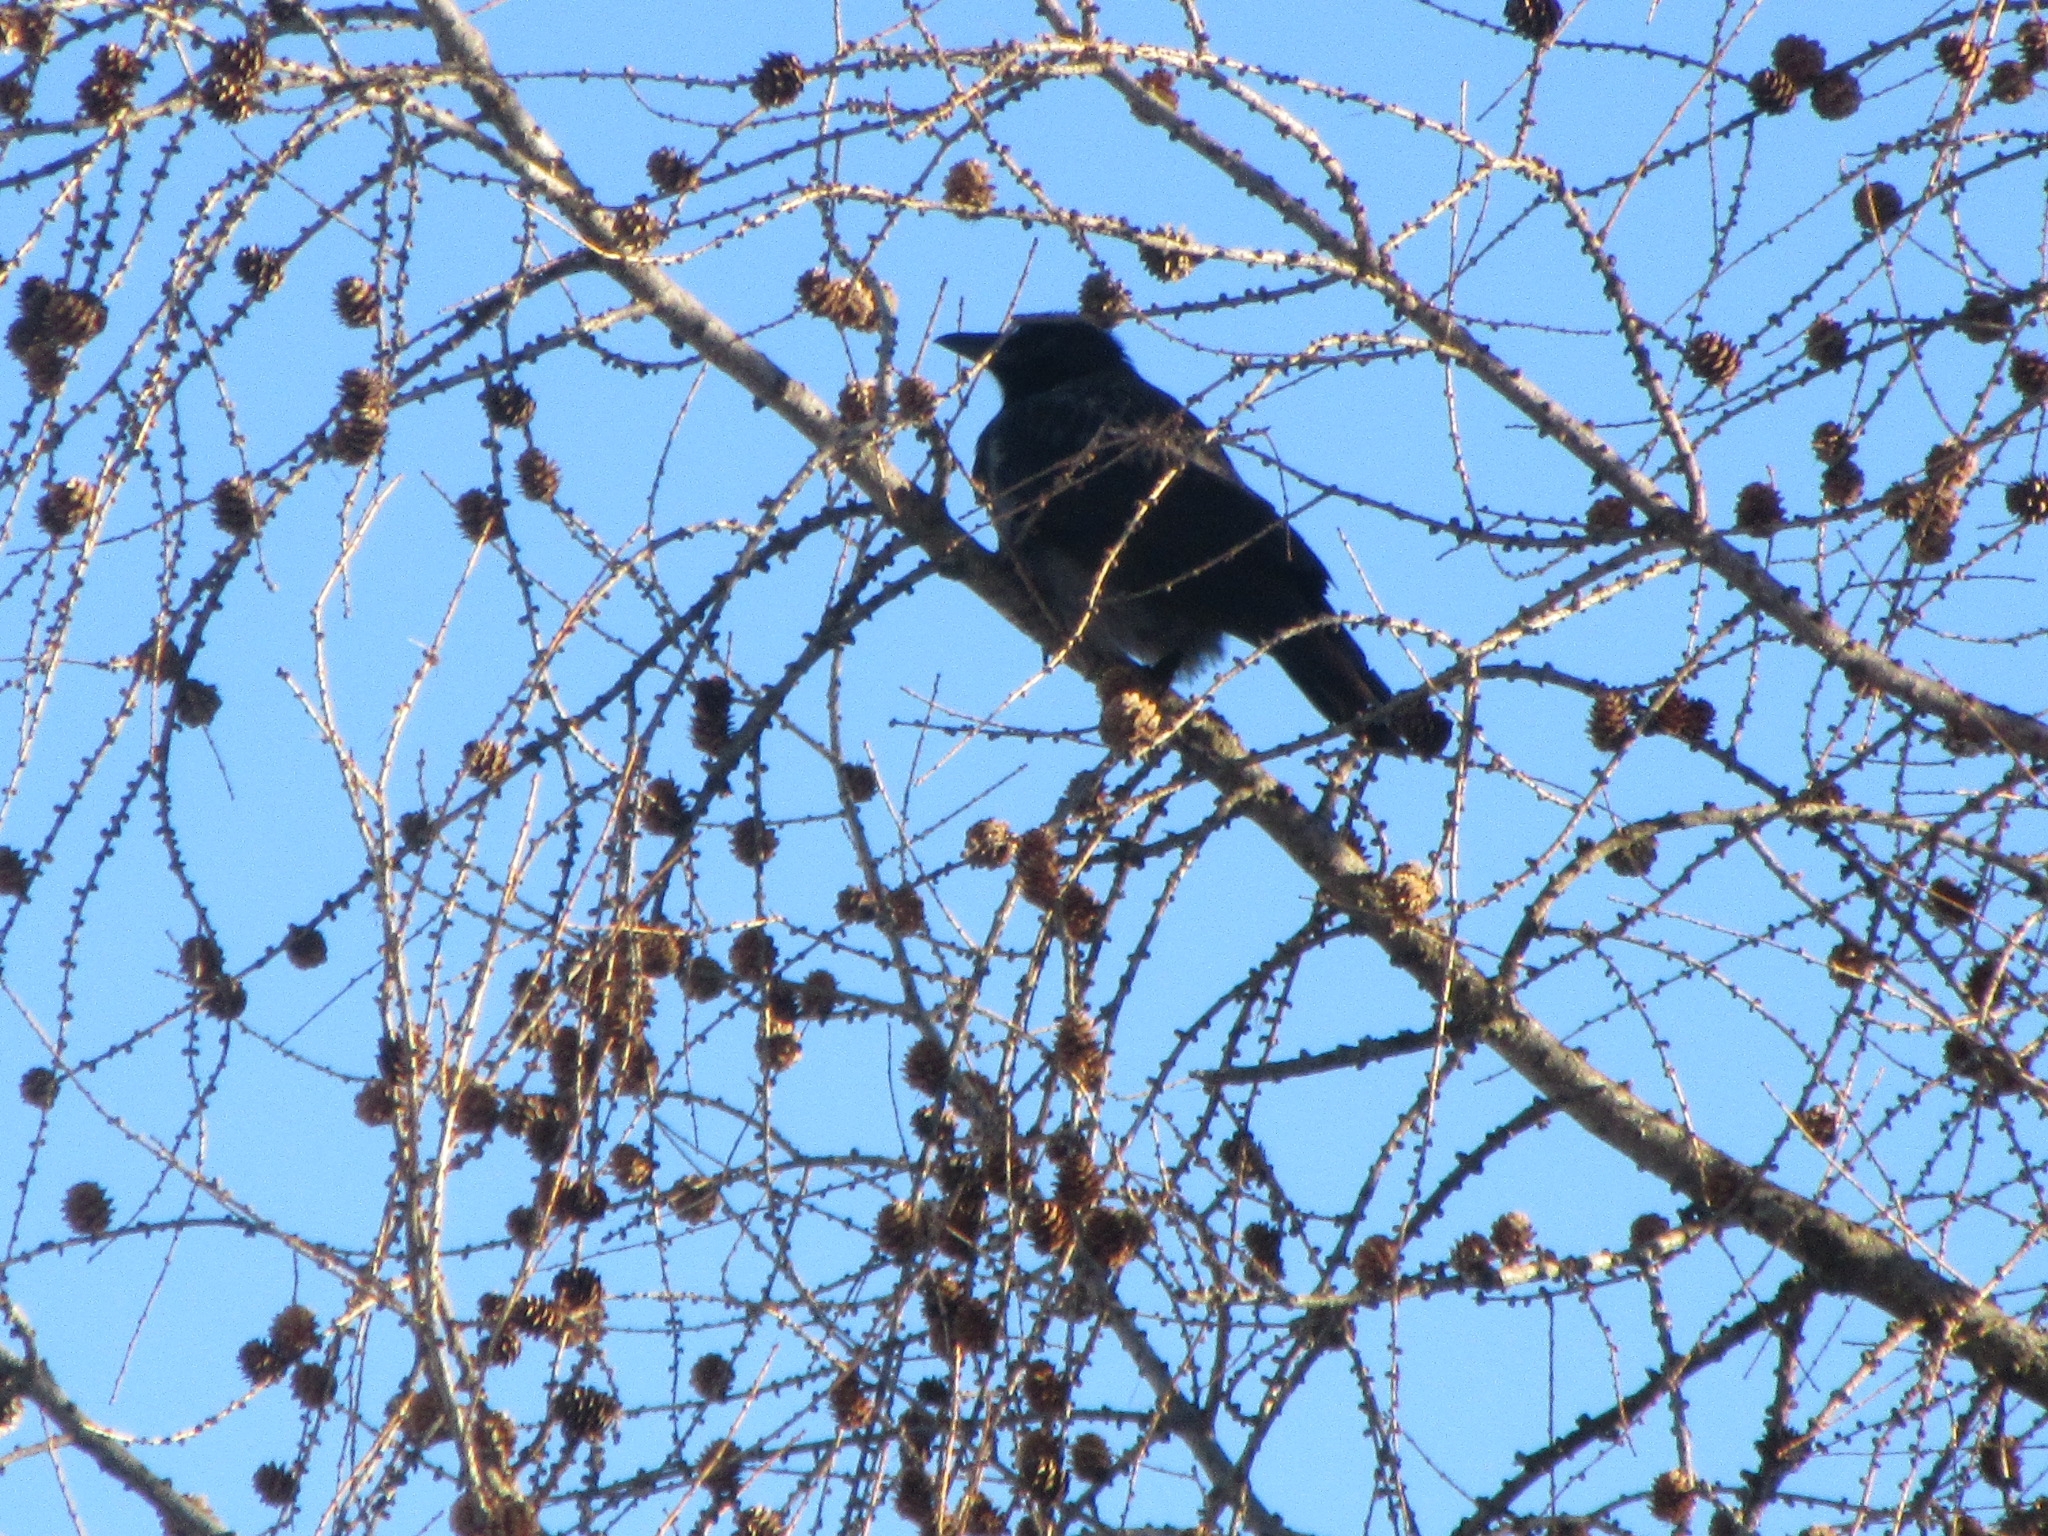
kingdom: Animalia
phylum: Chordata
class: Aves
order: Passeriformes
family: Corvidae
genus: Corvus
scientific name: Corvus
